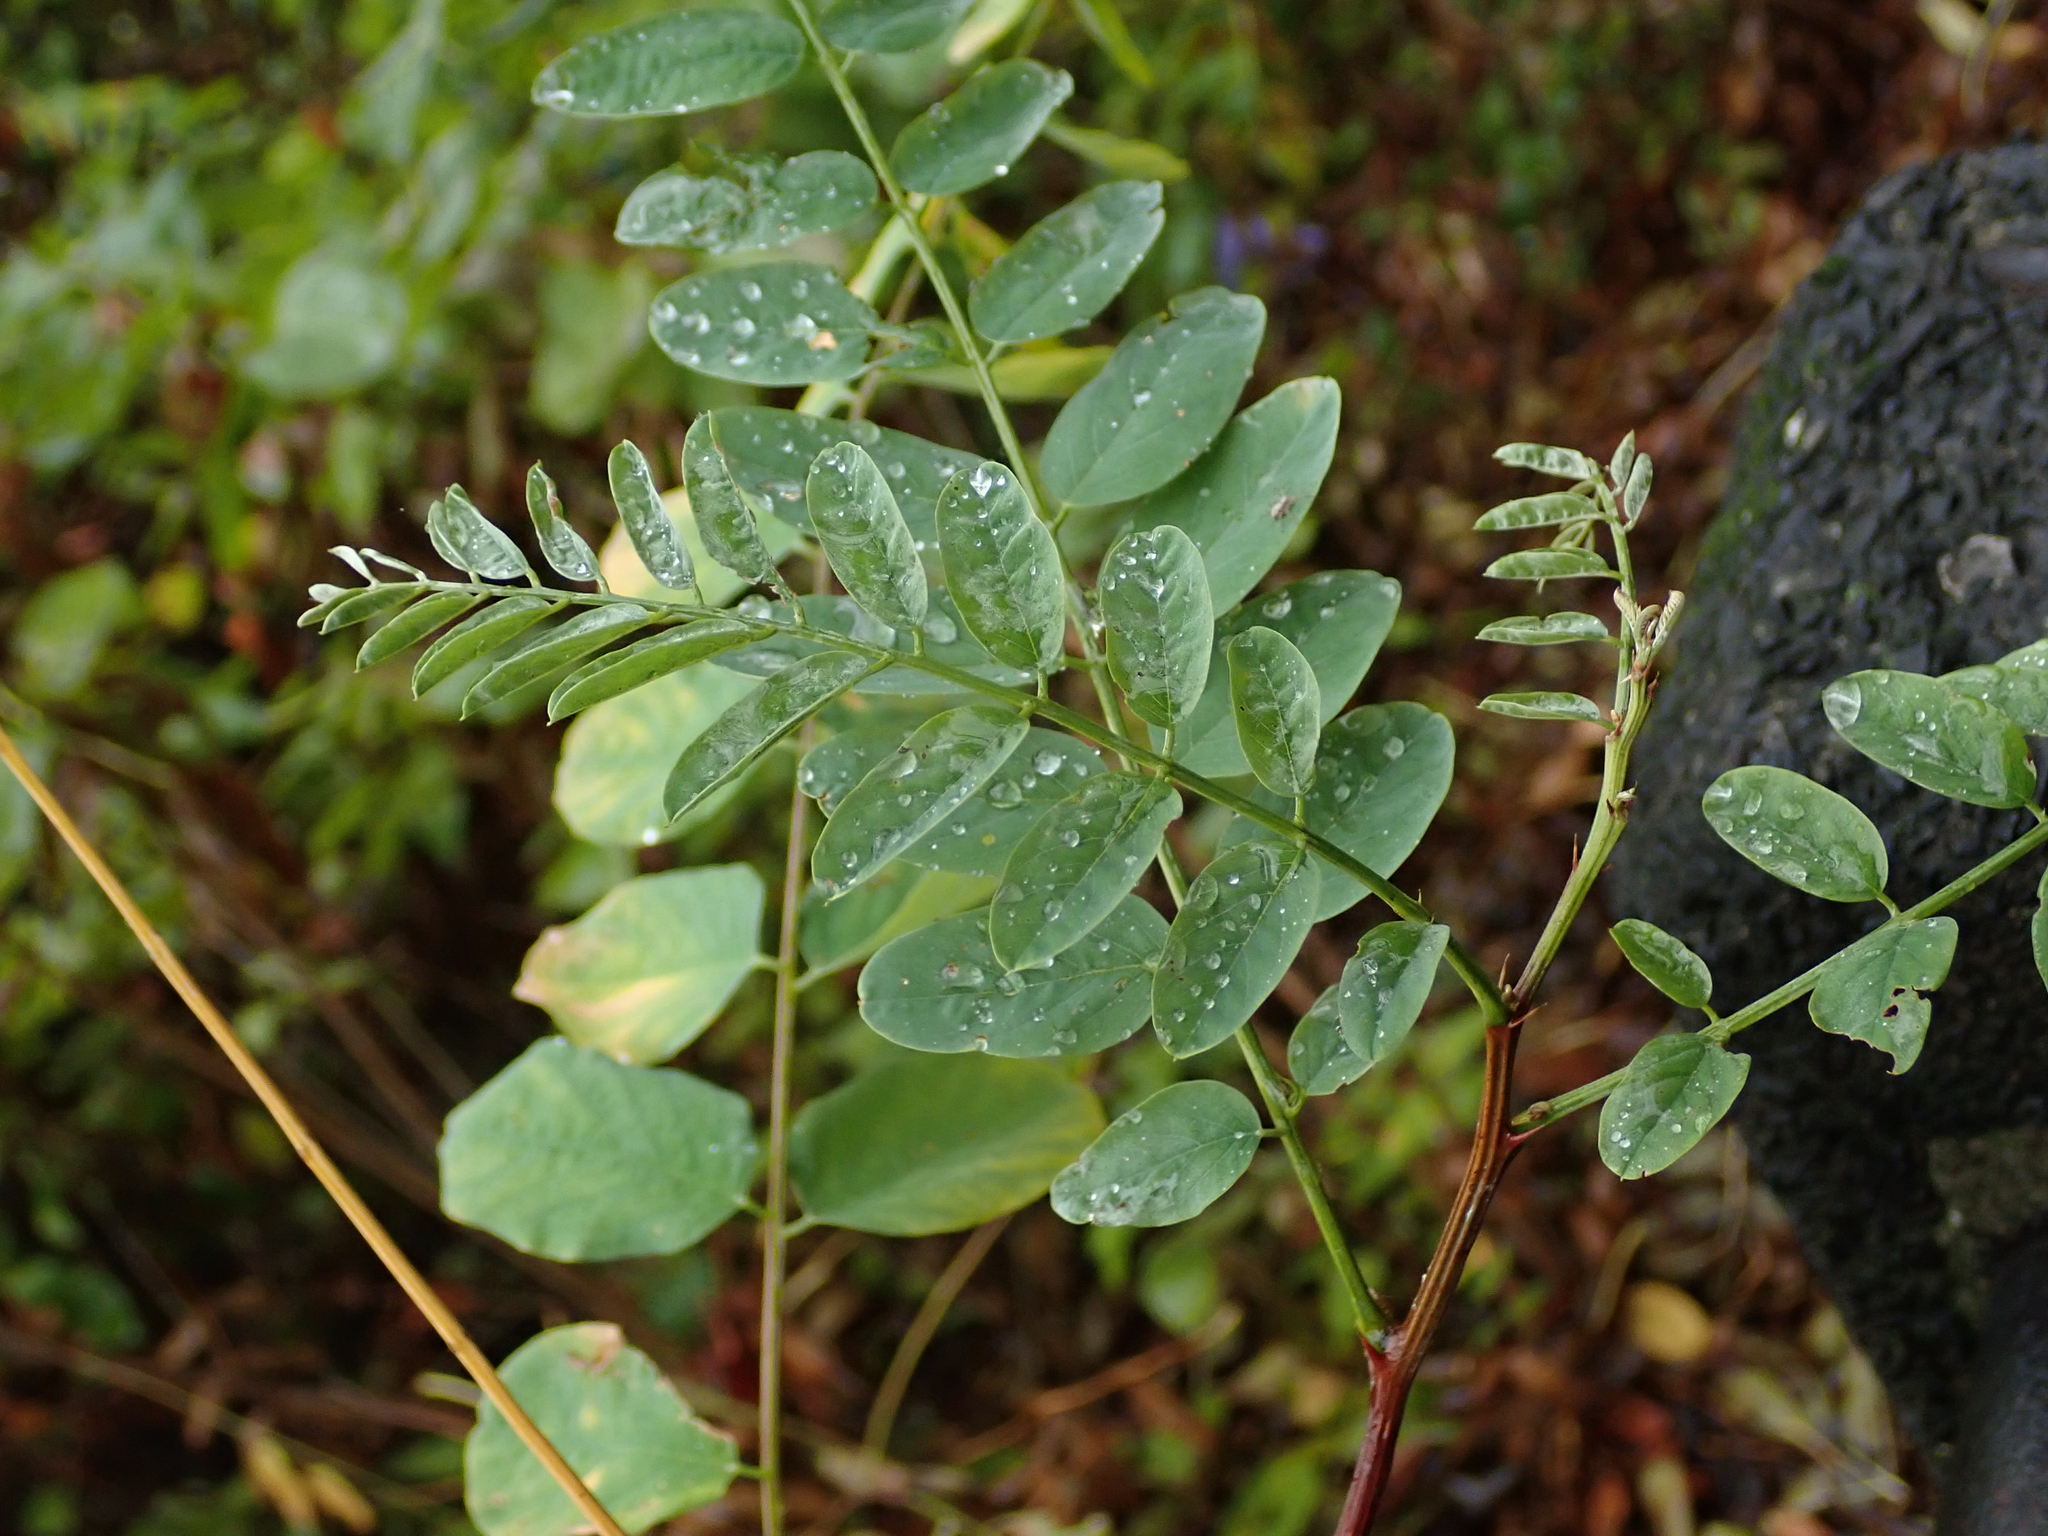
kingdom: Plantae
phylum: Tracheophyta
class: Magnoliopsida
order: Fabales
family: Fabaceae
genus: Robinia
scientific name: Robinia pseudoacacia
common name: Black locust
